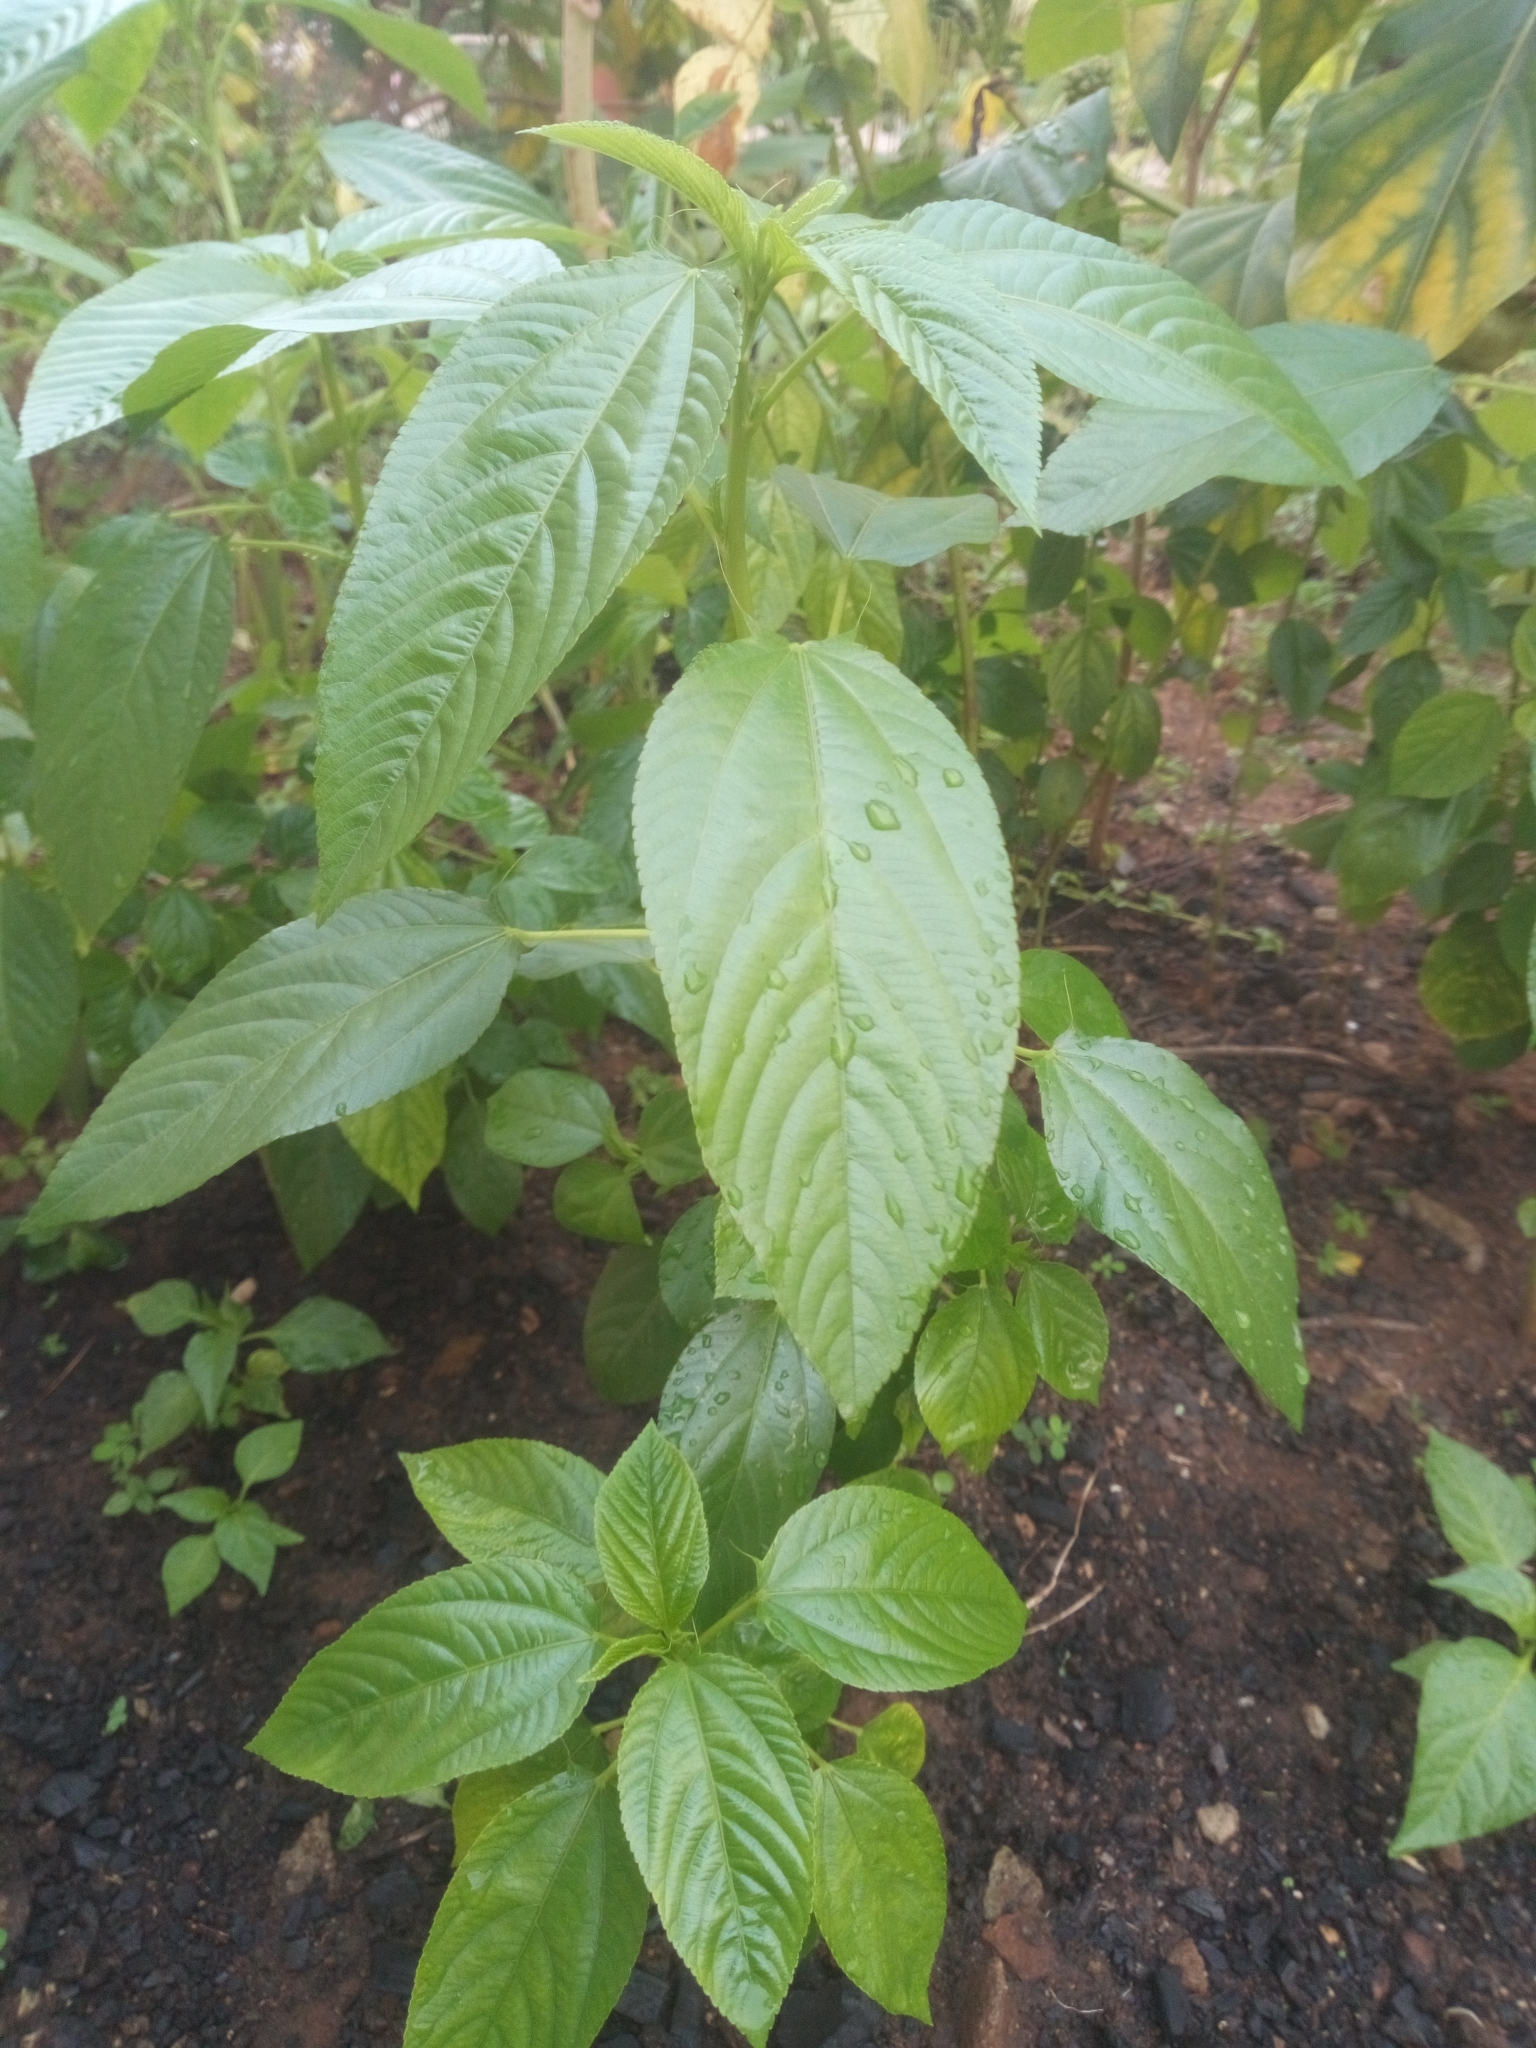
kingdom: Plantae
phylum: Tracheophyta
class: Magnoliopsida
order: Malvales
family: Malvaceae
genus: Corchorus
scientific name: Corchorus olitorius
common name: Tossa jute
